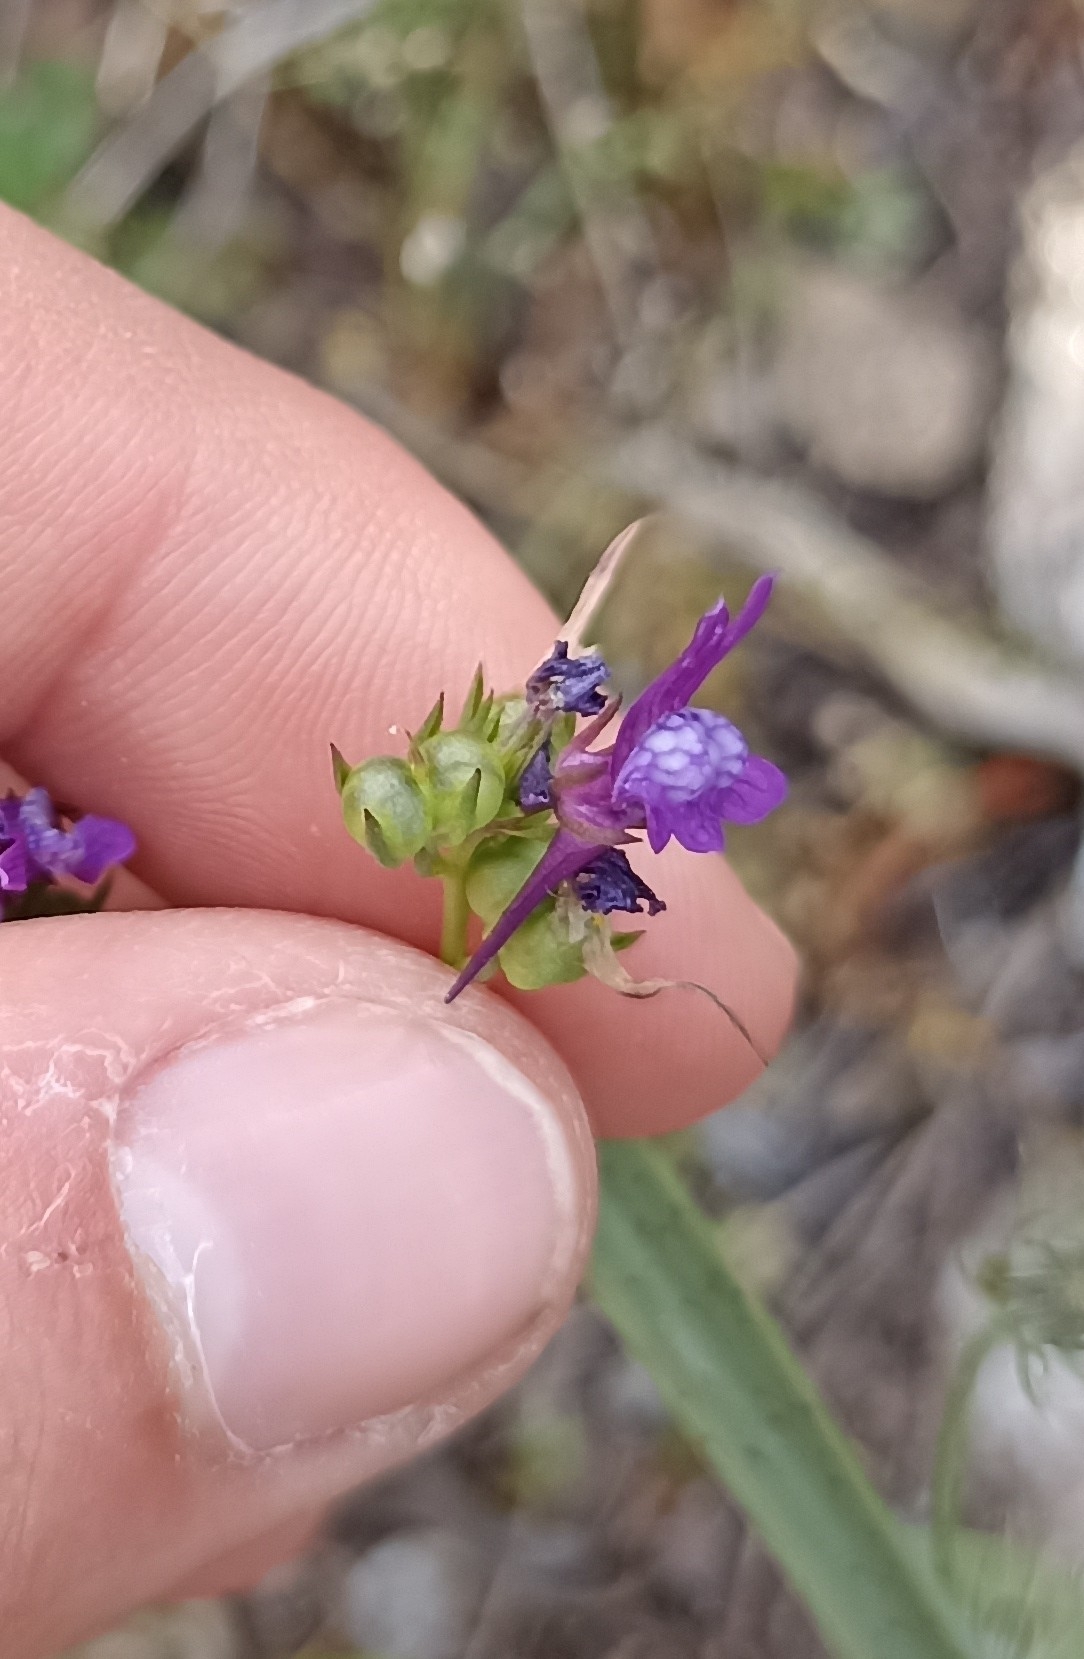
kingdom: Plantae
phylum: Tracheophyta
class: Magnoliopsida
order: Lamiales
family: Plantaginaceae
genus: Linaria
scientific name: Linaria pelisseriana
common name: Jersey toadflax
